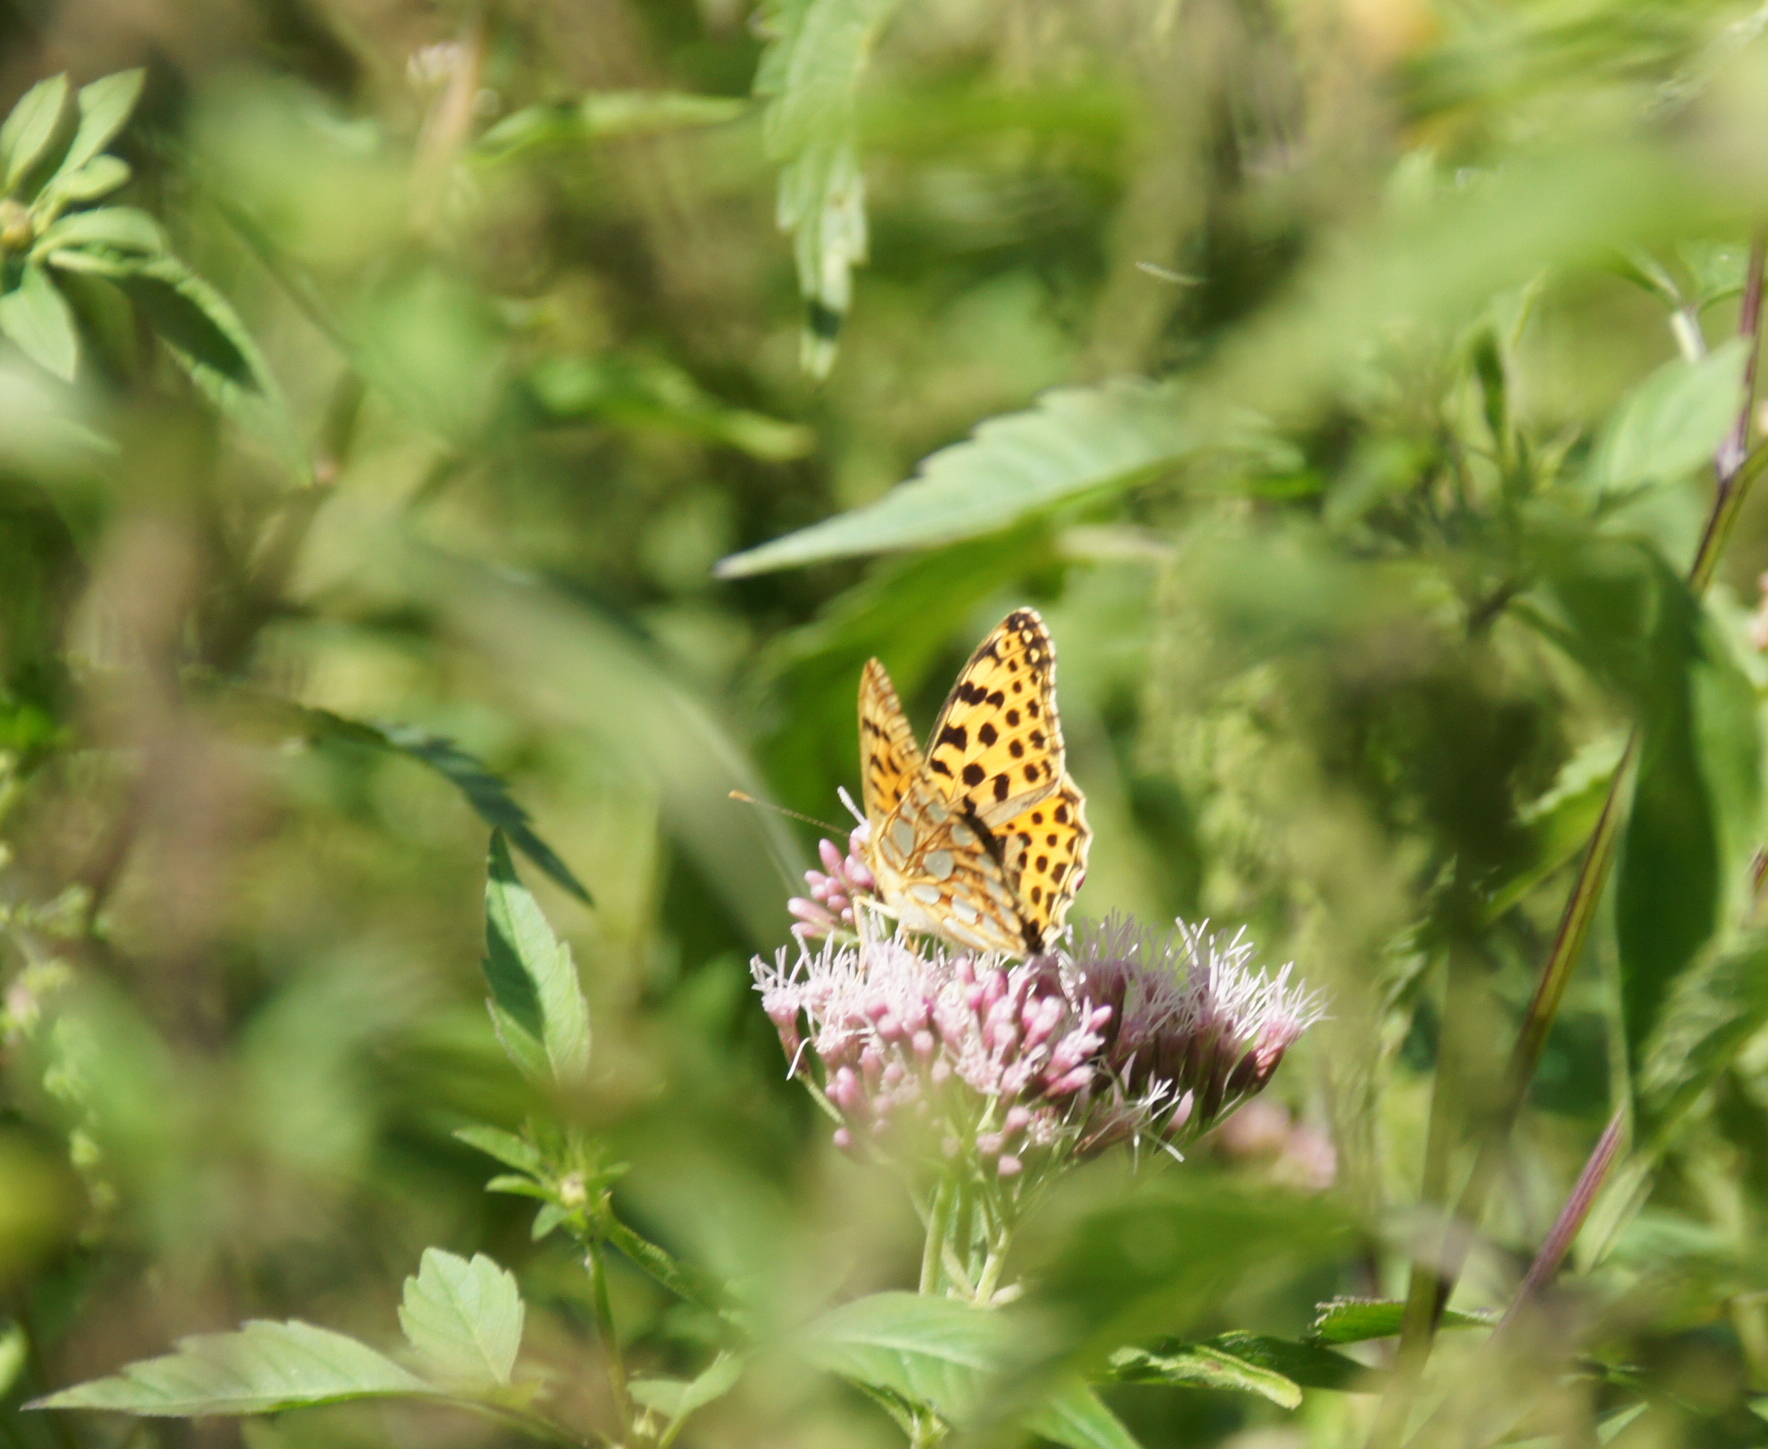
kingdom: Animalia
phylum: Arthropoda
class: Insecta
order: Lepidoptera
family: Nymphalidae
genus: Issoria
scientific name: Issoria lathonia
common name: Queen of spain fritillary
